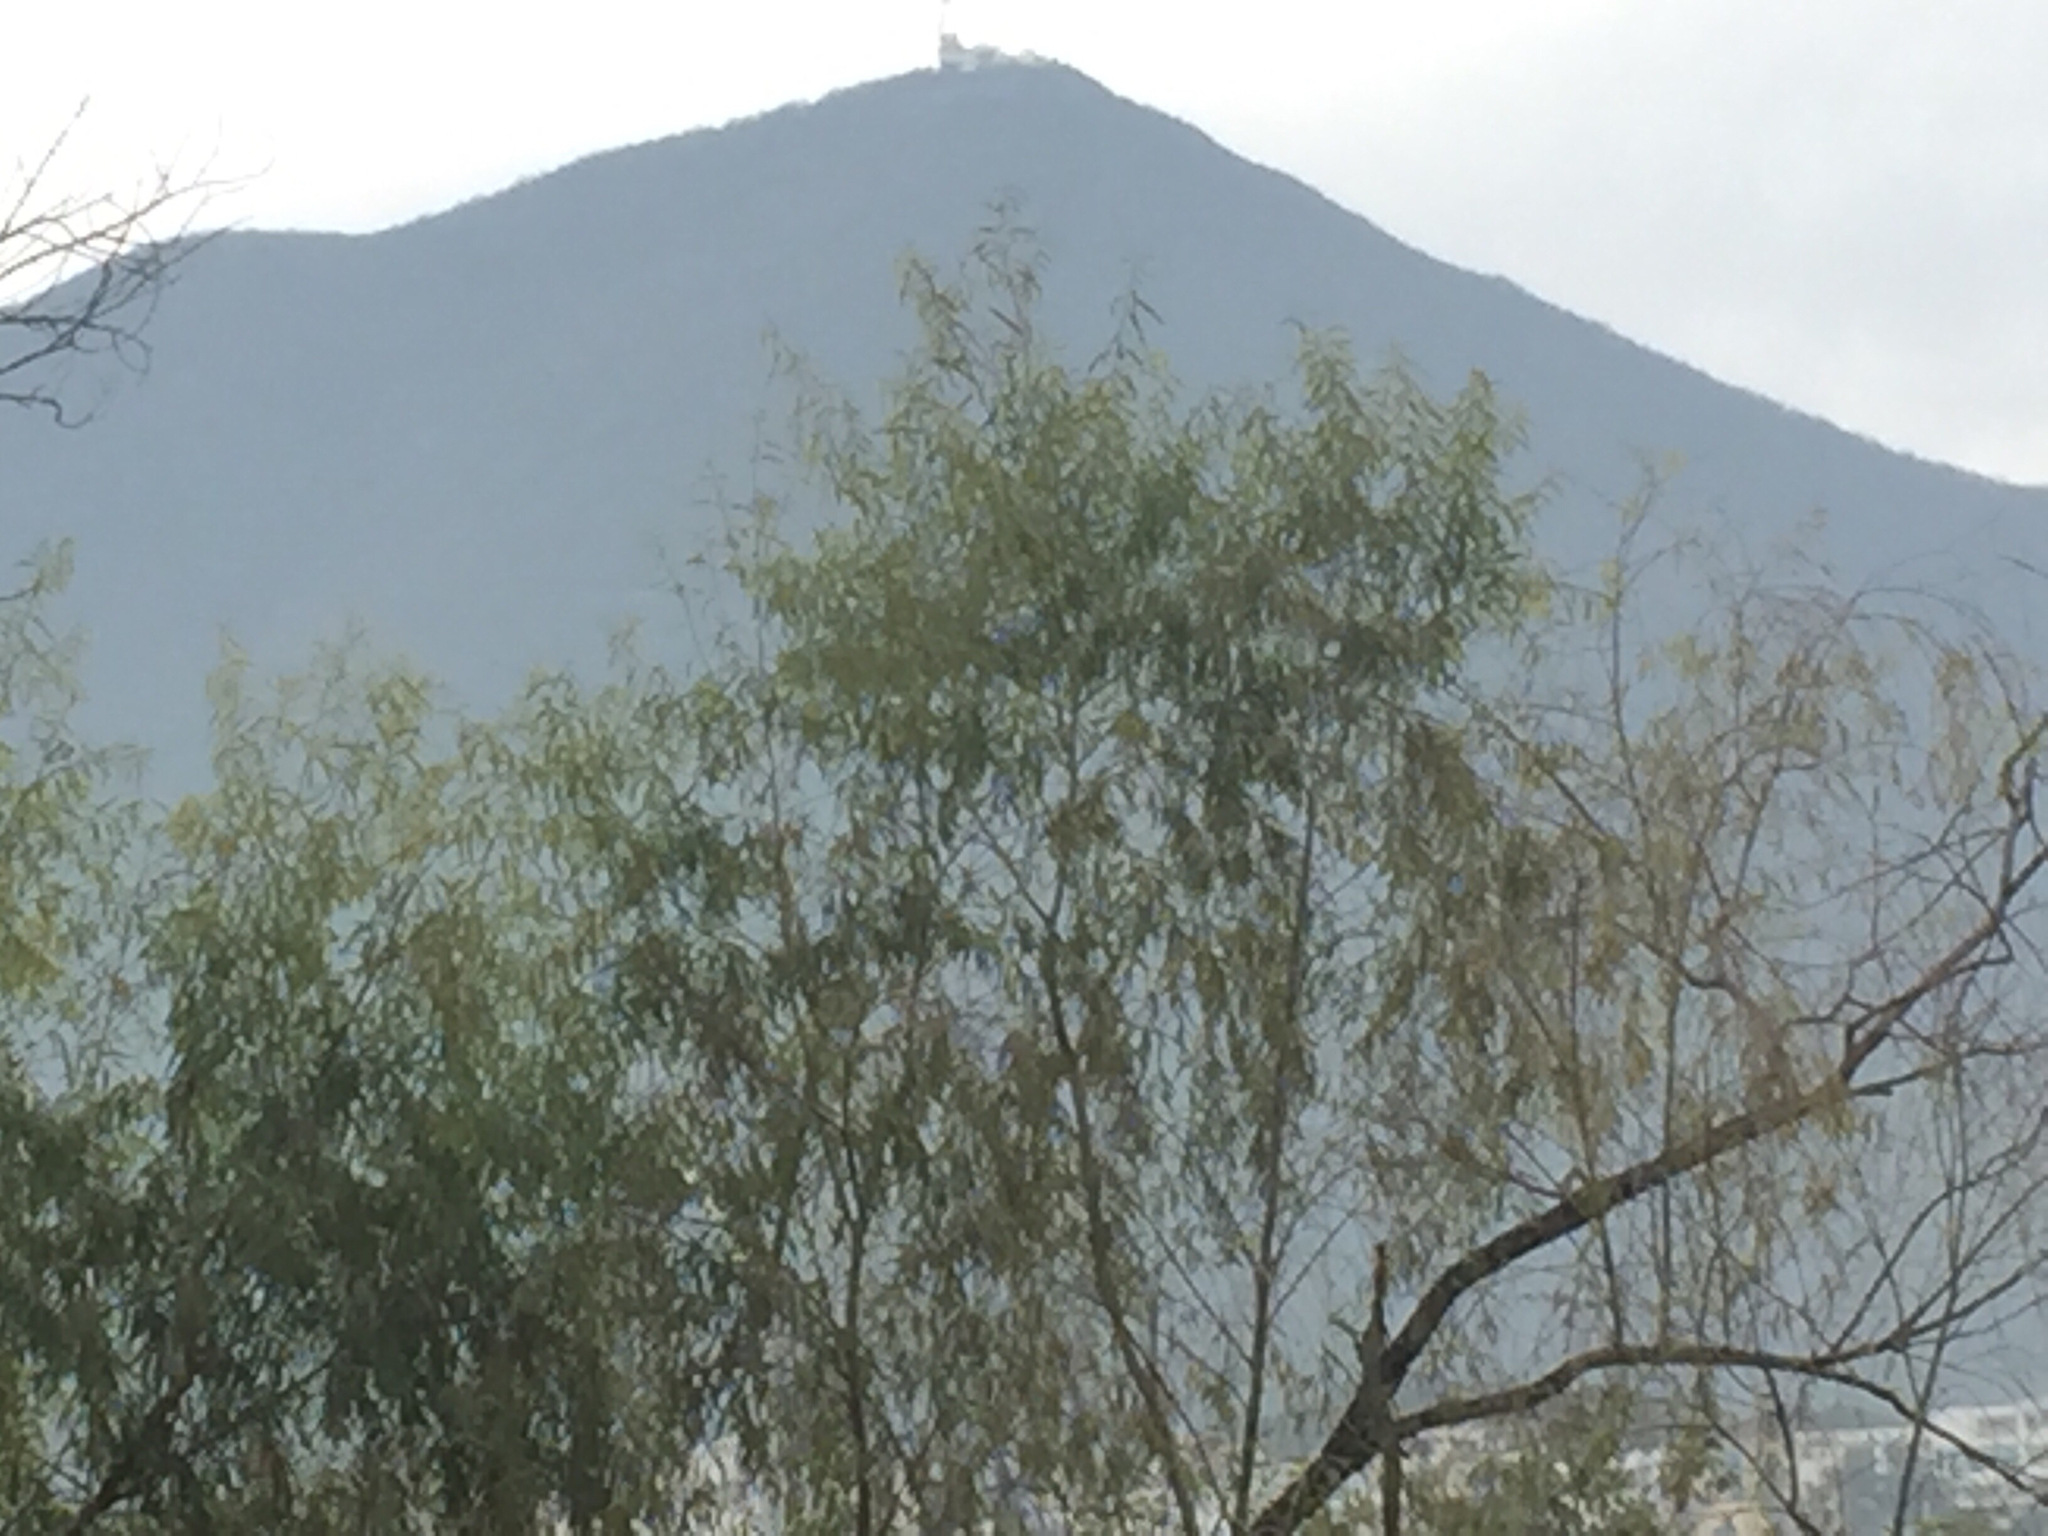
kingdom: Plantae
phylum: Tracheophyta
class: Magnoliopsida
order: Malpighiales
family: Salicaceae
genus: Salix
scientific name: Salix nigra
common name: Black willow
